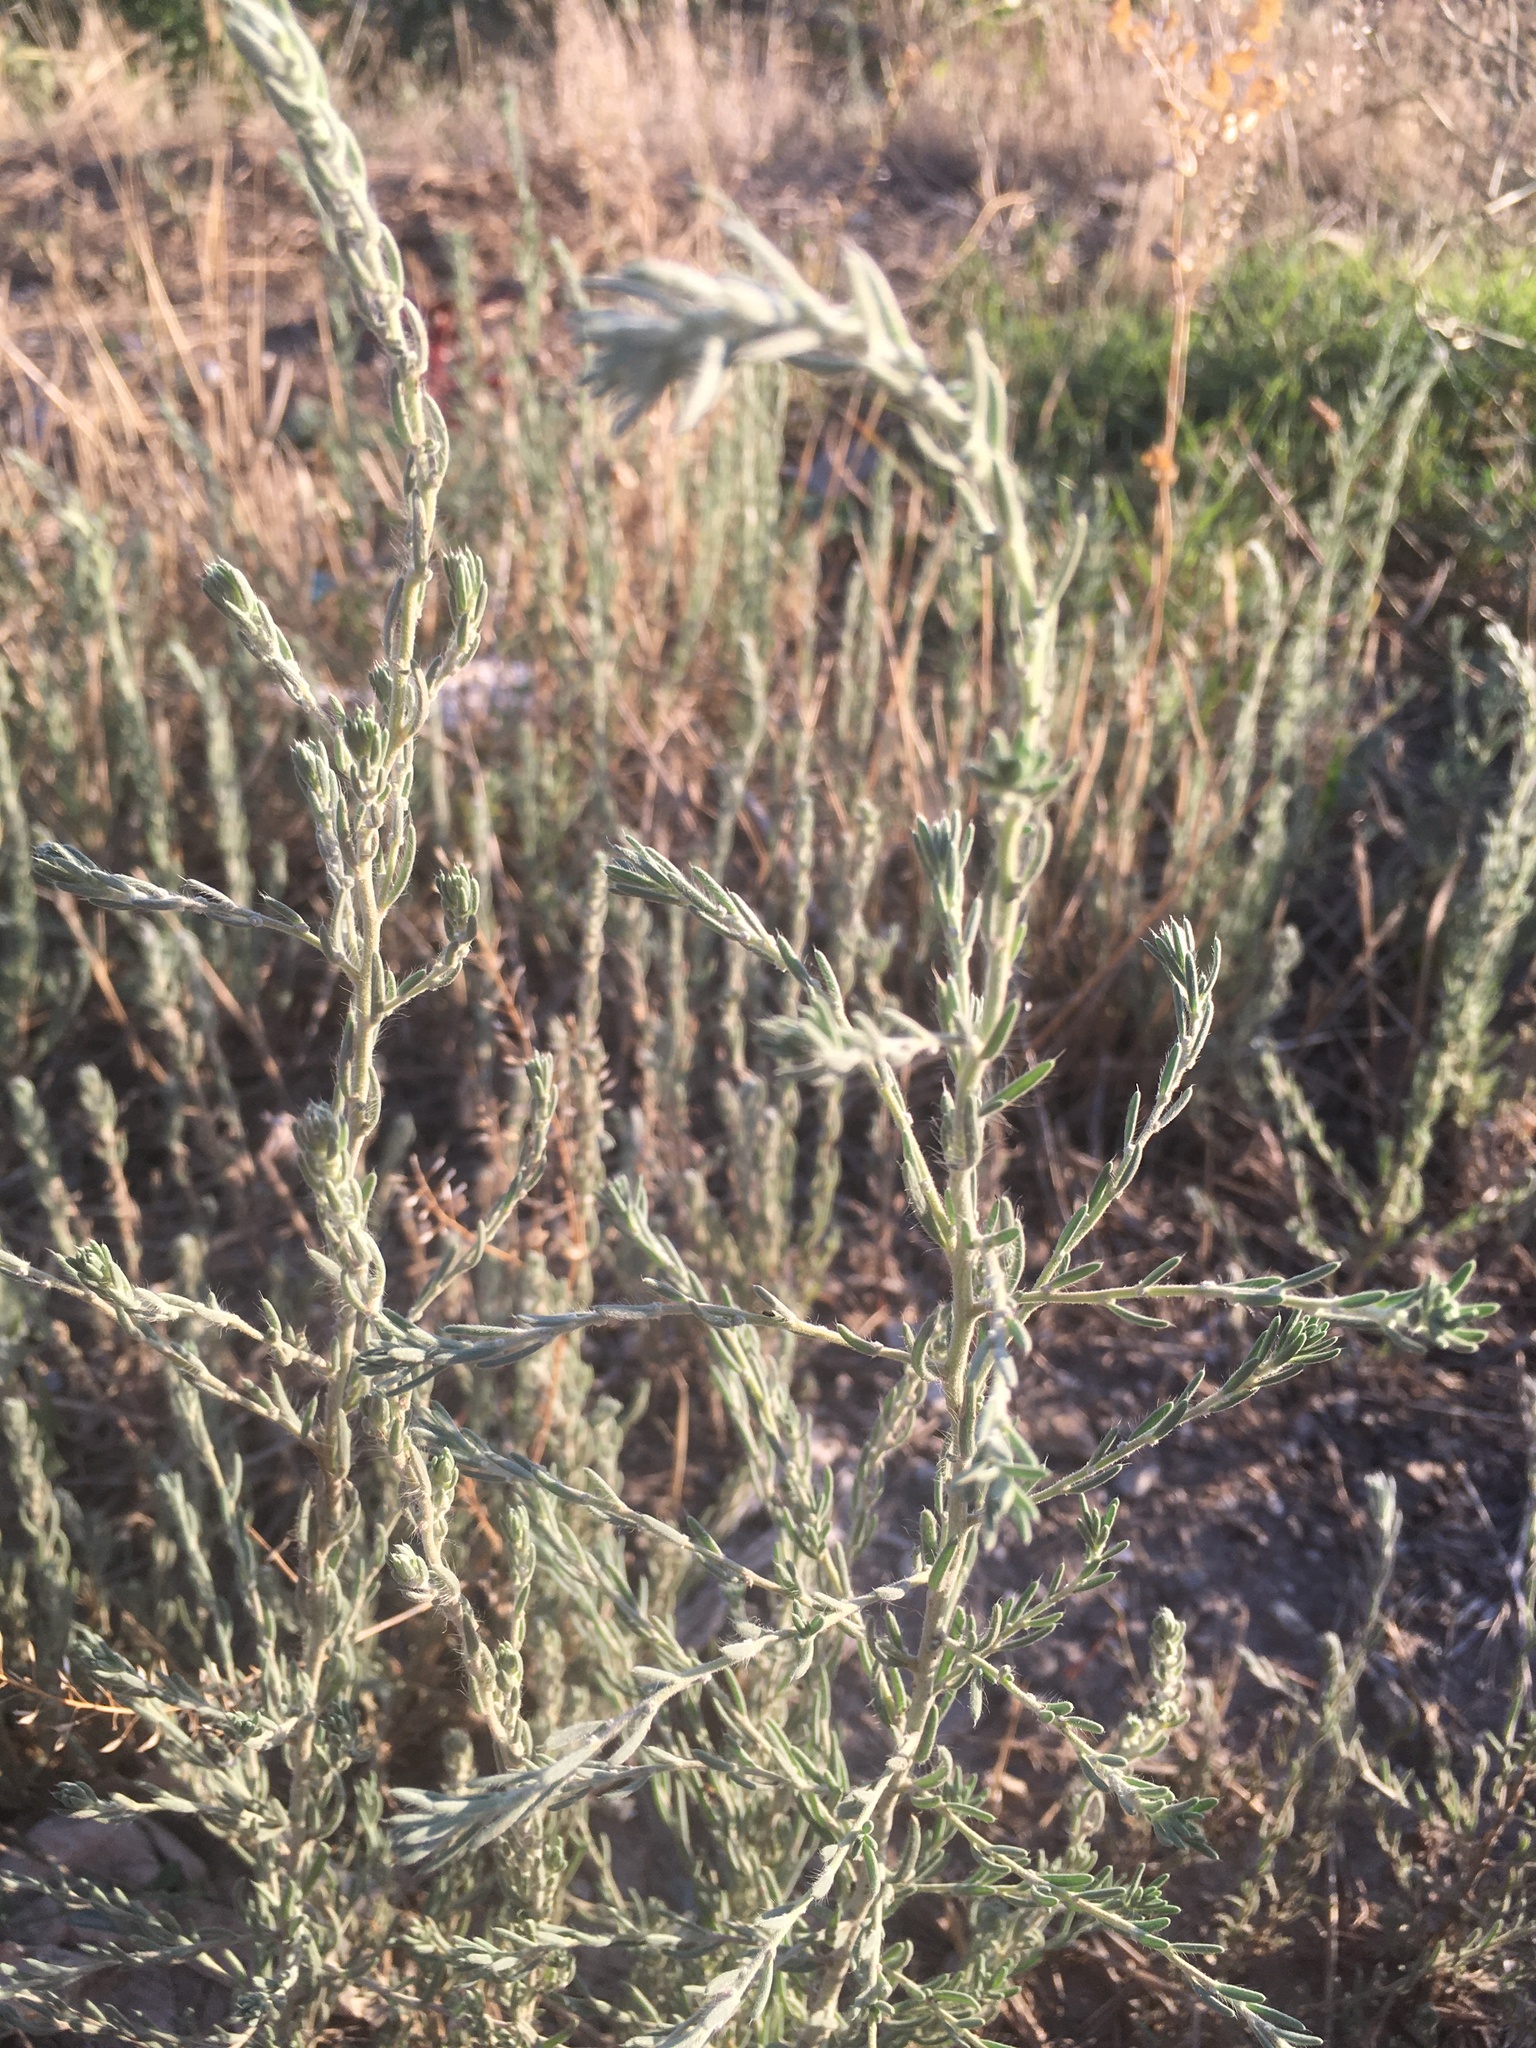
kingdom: Plantae
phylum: Tracheophyta
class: Magnoliopsida
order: Caryophyllales
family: Amaranthaceae
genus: Sedobassia
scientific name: Sedobassia sedoides
